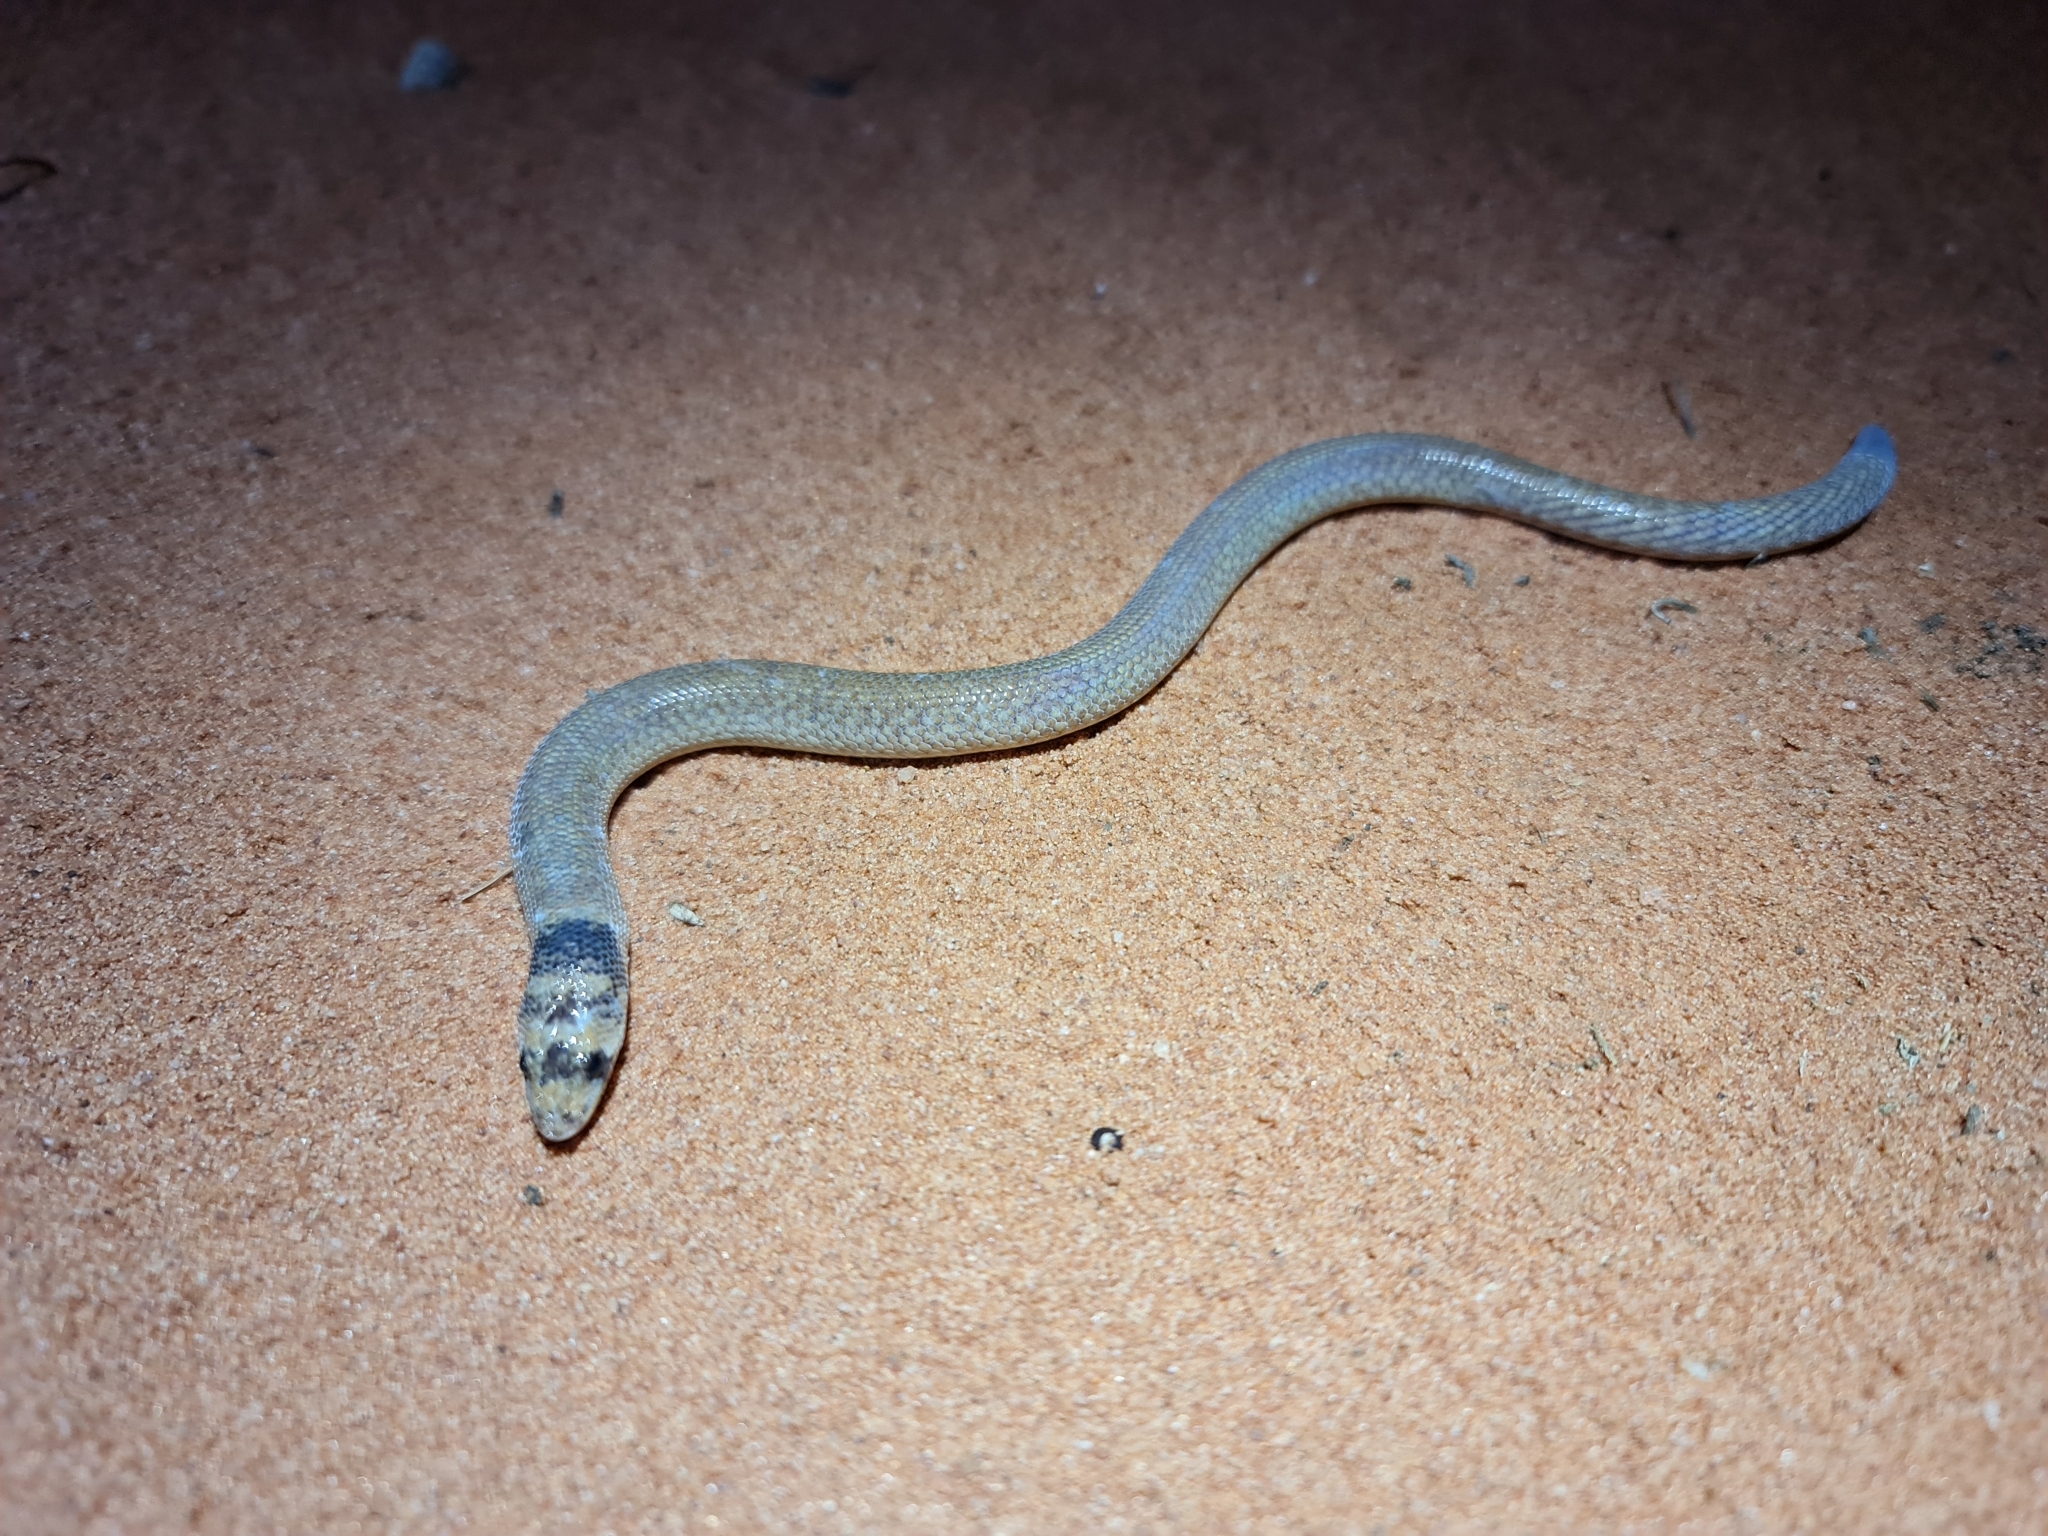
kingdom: Animalia
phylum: Chordata
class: Squamata
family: Pygopodidae
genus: Pygopus
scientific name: Pygopus nigriceps
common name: Black-headed scaly foot
